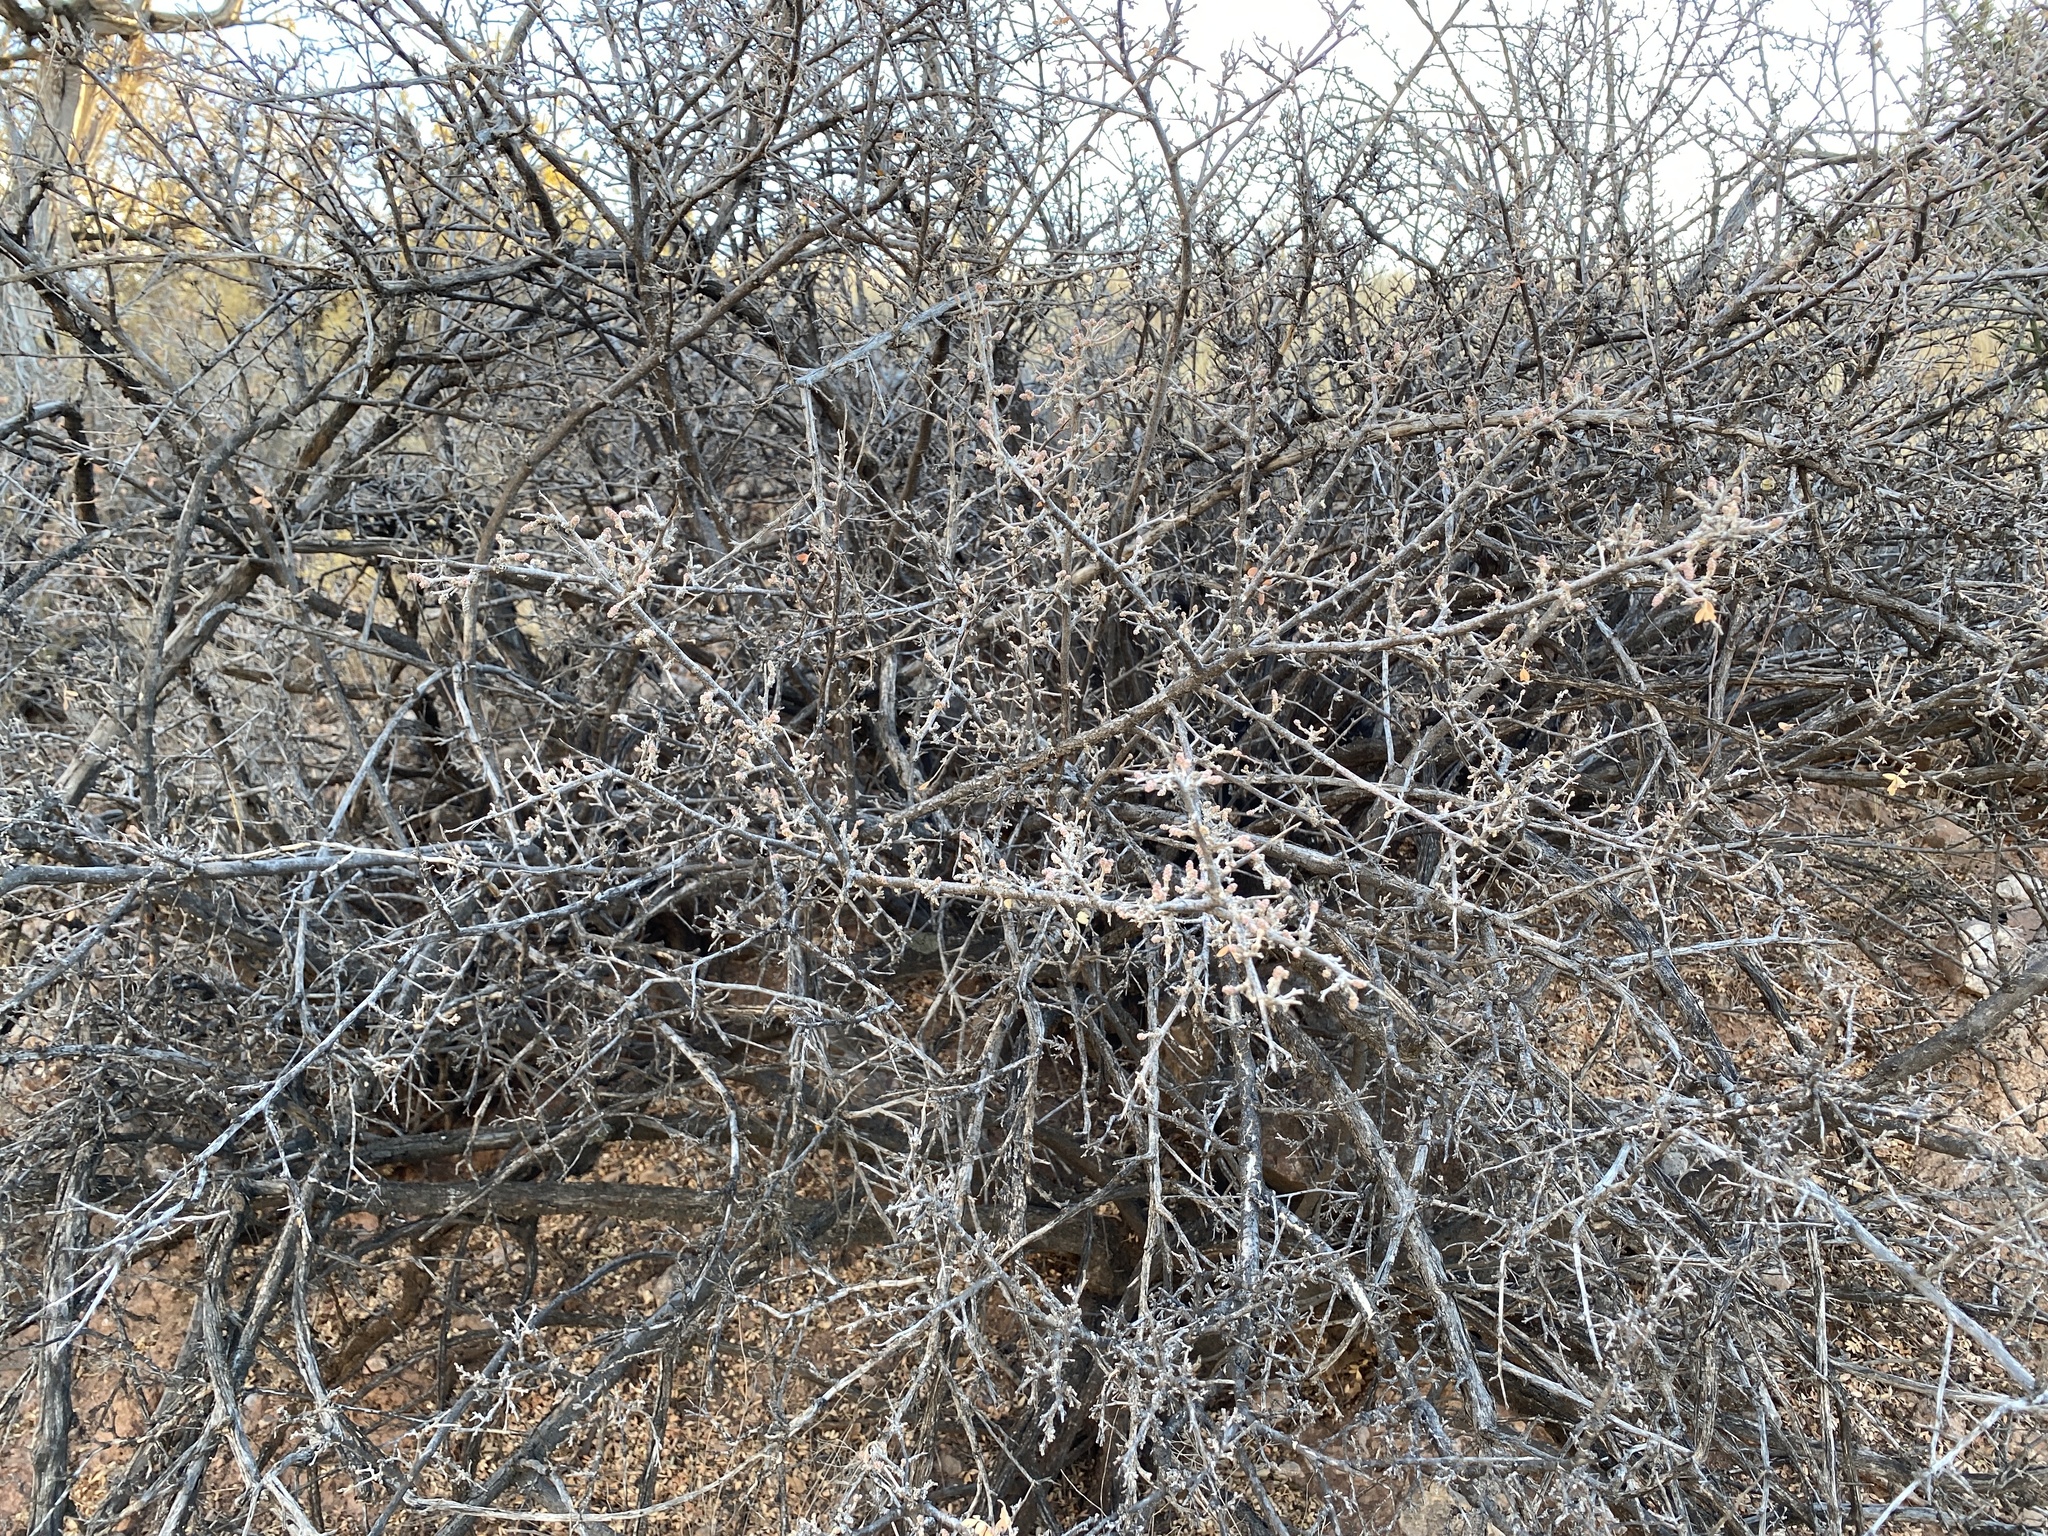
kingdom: Plantae
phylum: Tracheophyta
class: Magnoliopsida
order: Sapindales
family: Anacardiaceae
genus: Rhus
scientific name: Rhus microphylla
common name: Desert sumac
